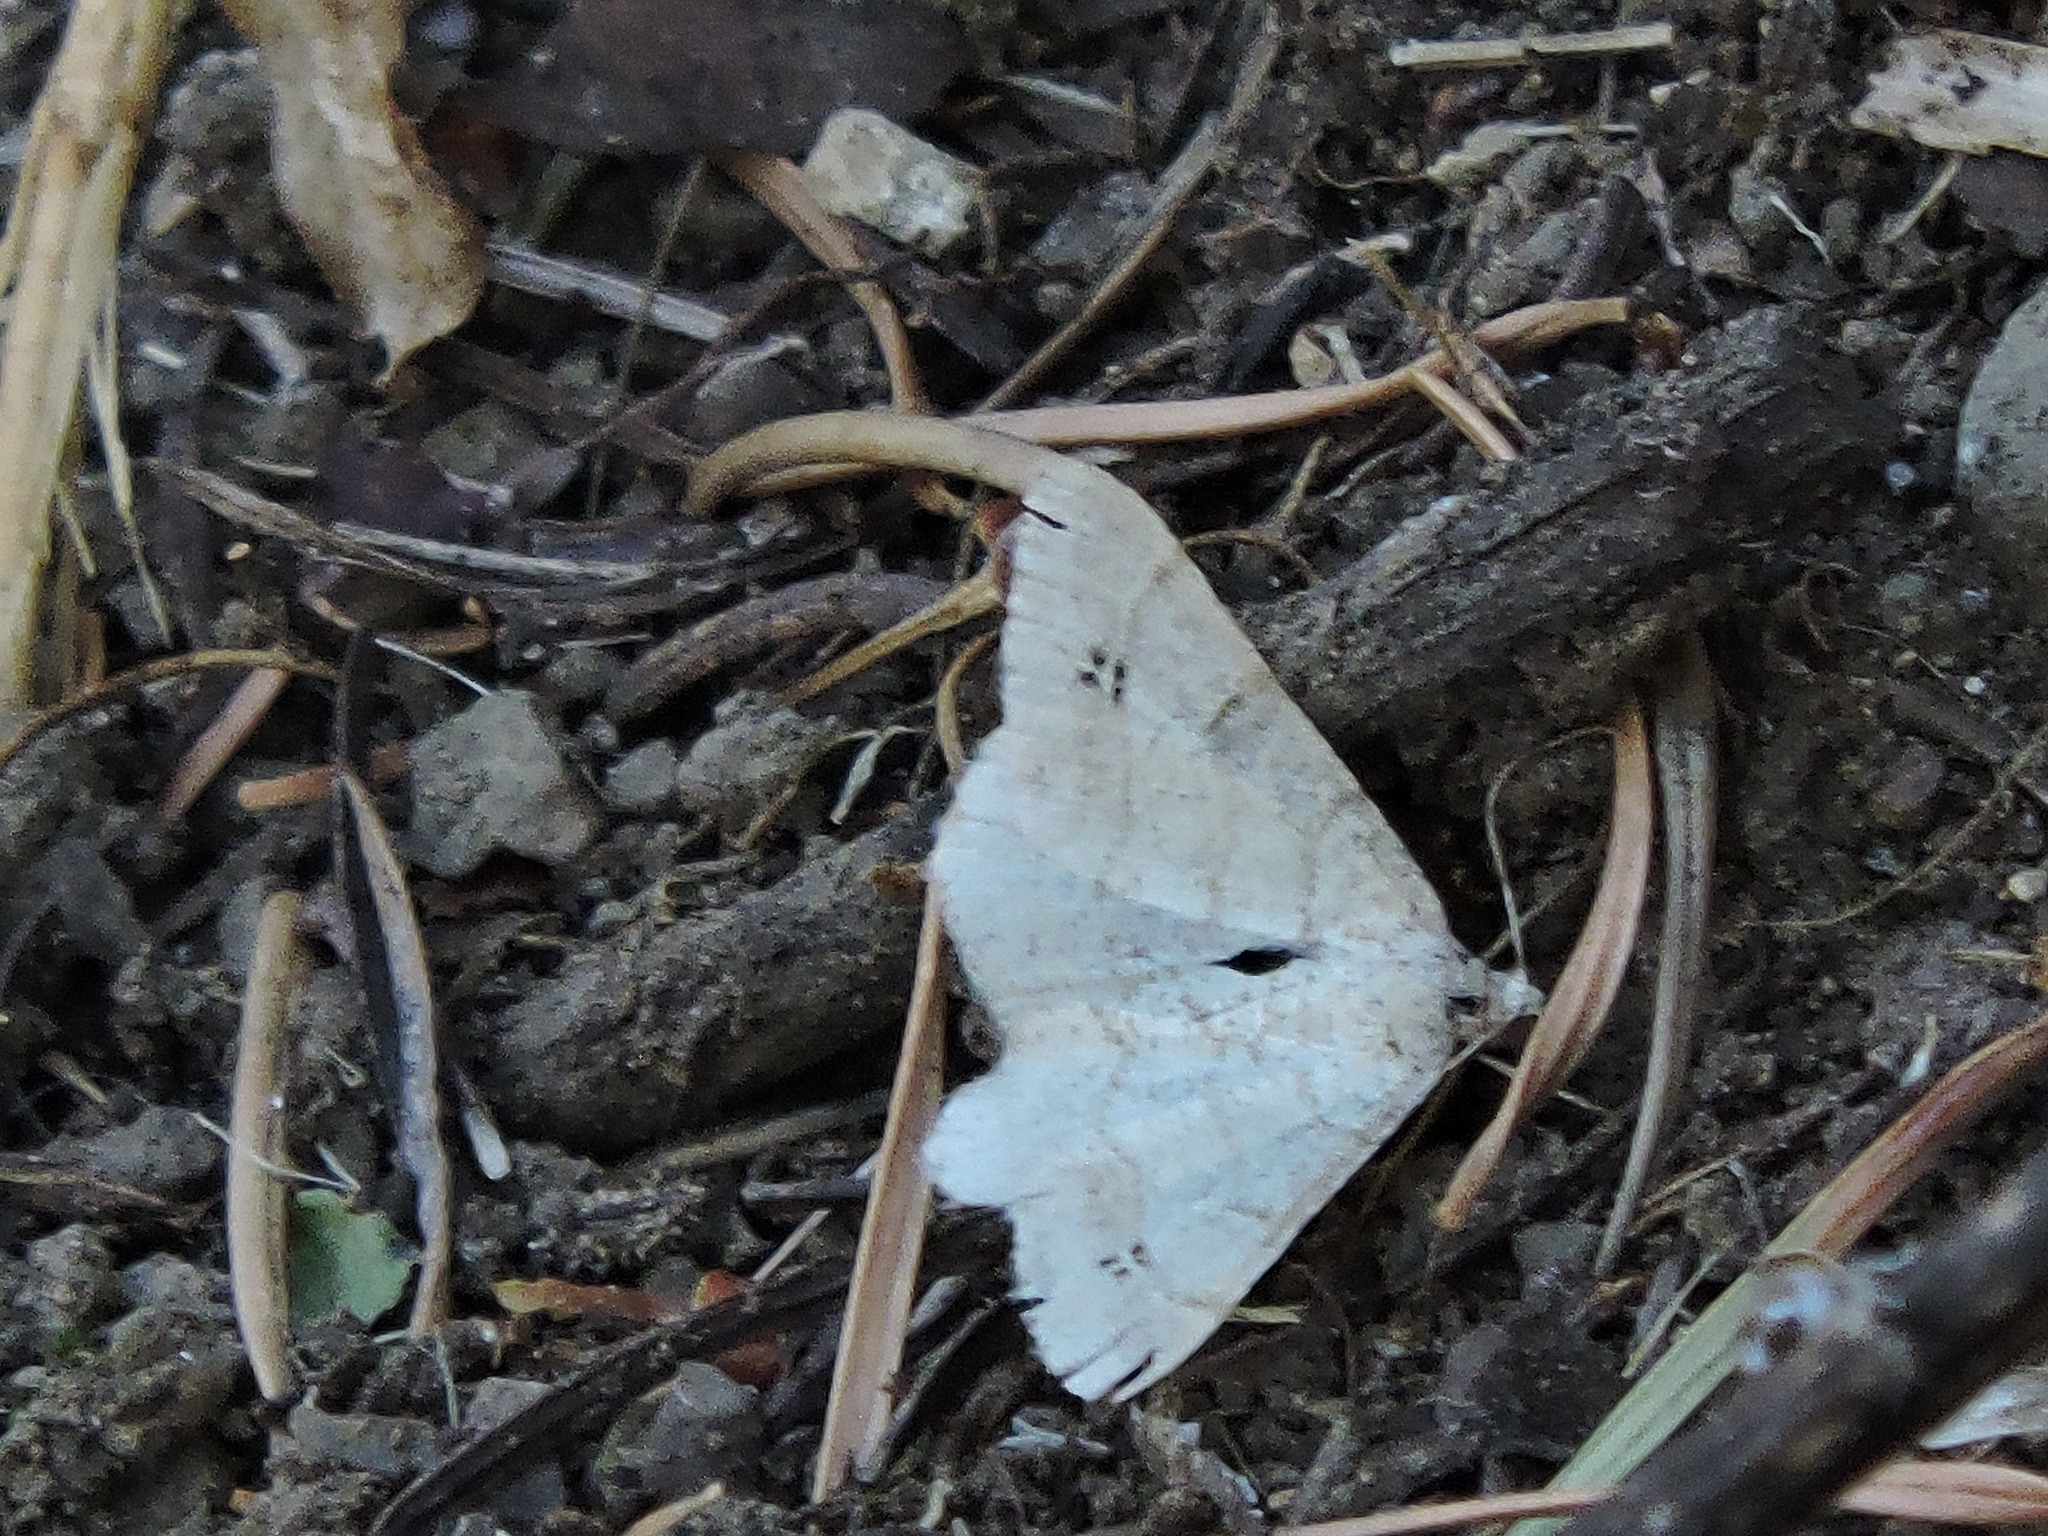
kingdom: Animalia
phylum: Arthropoda
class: Insecta
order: Lepidoptera
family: Geometridae
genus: Digrammia
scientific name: Digrammia muscariata
